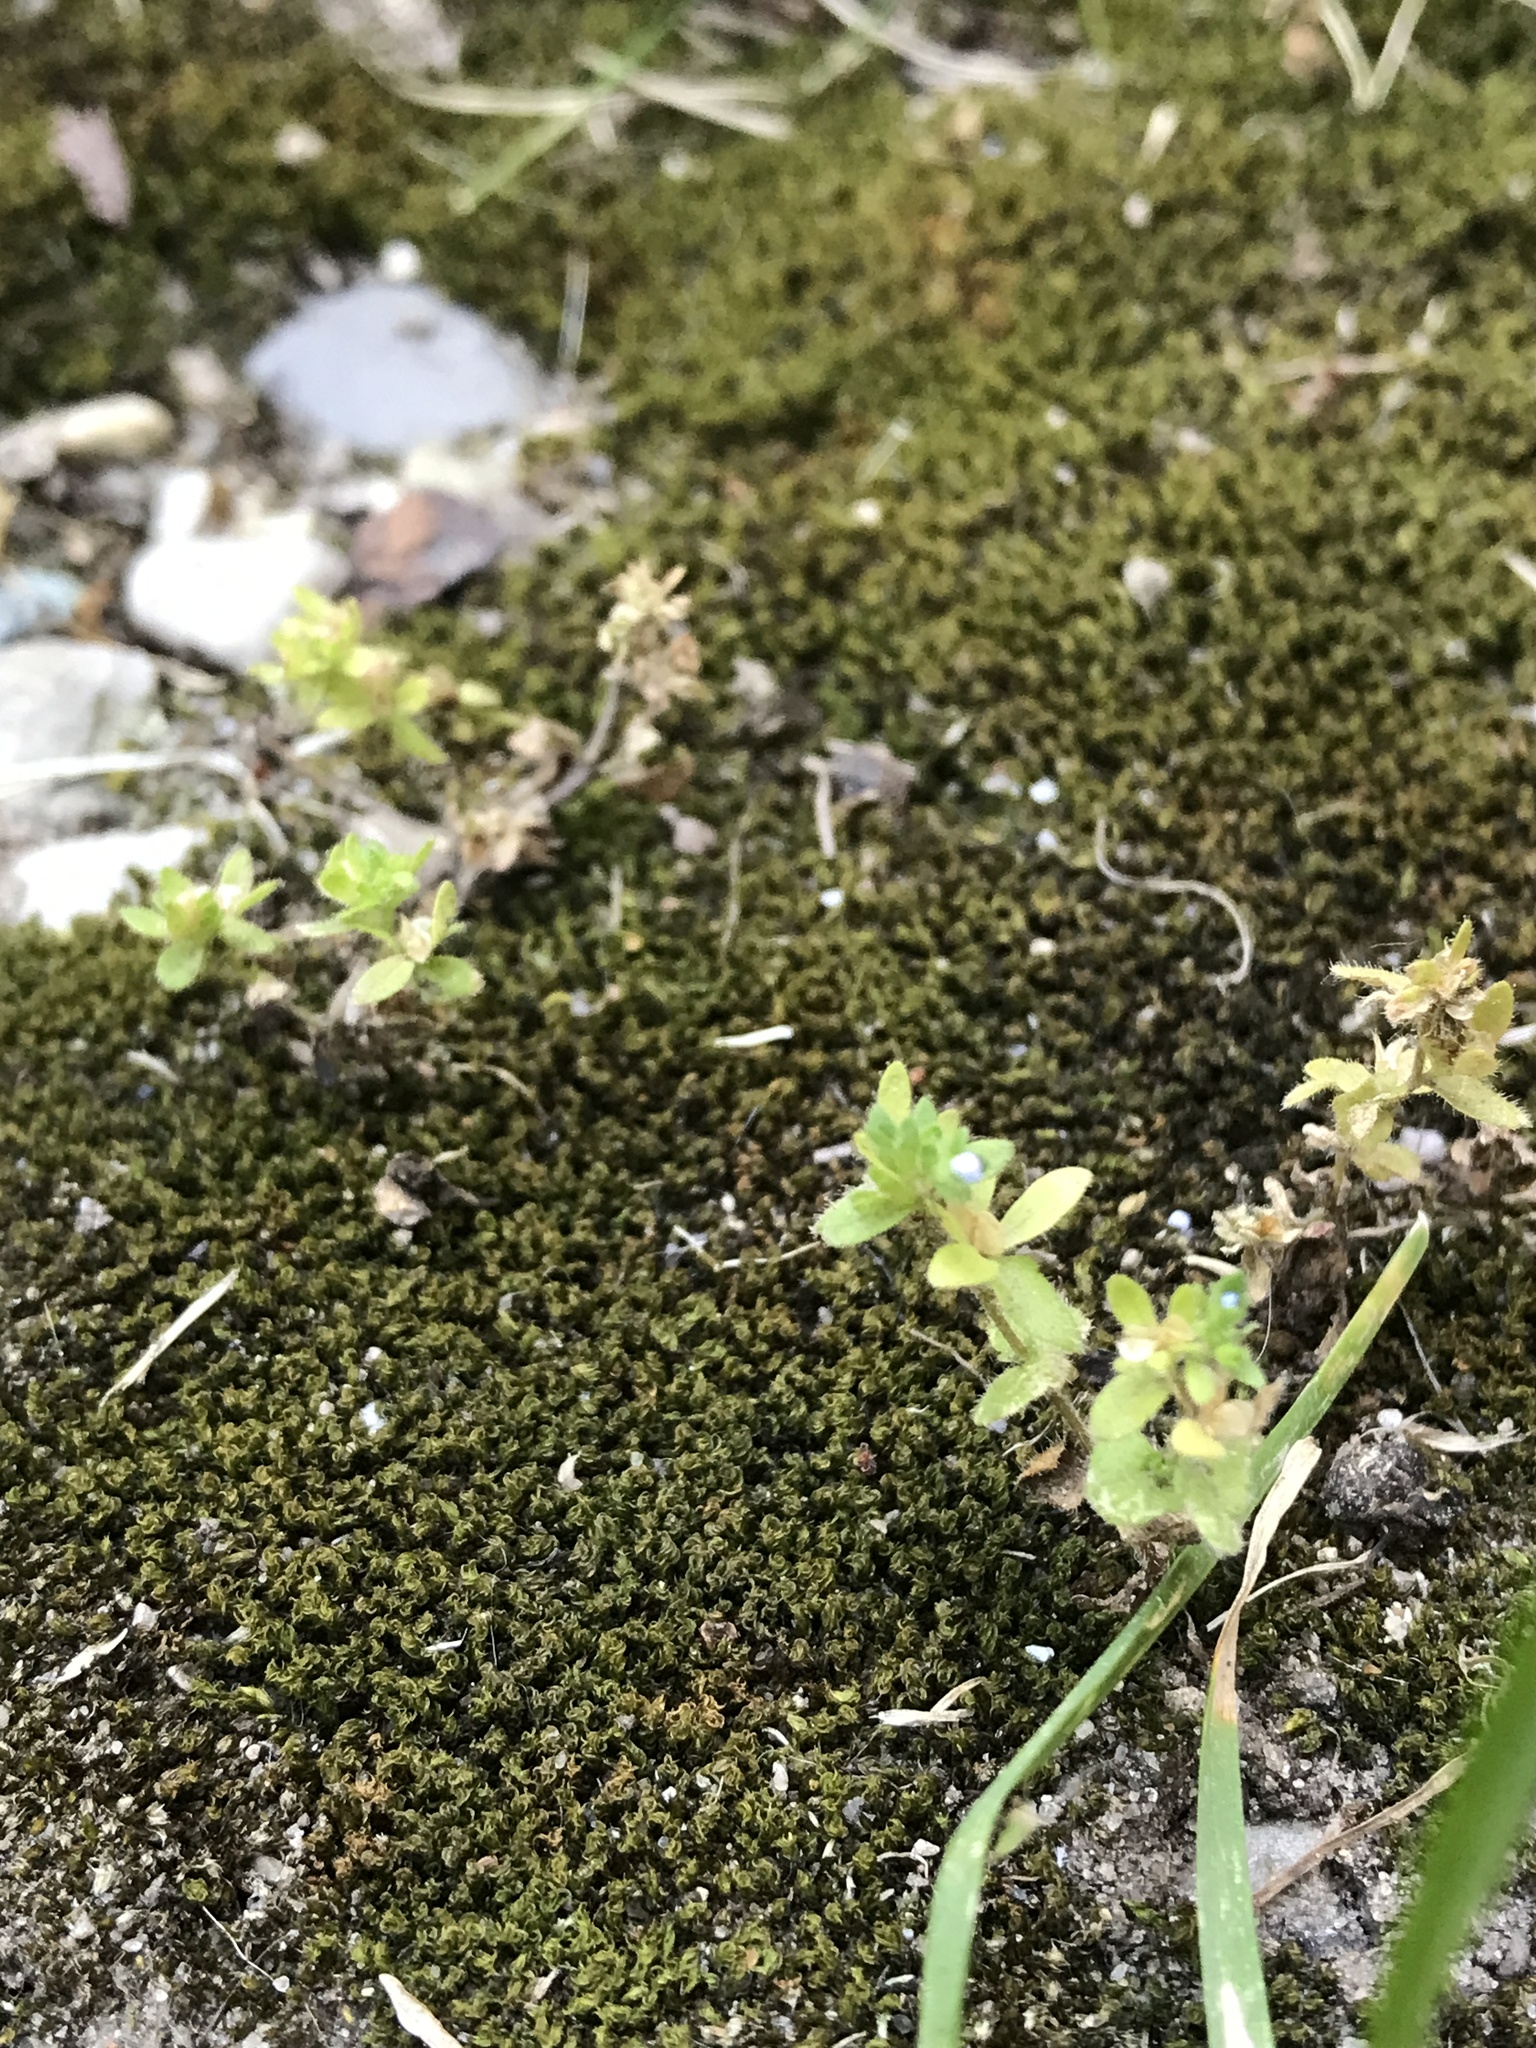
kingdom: Plantae
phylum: Tracheophyta
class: Magnoliopsida
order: Lamiales
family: Plantaginaceae
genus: Veronica
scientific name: Veronica arvensis
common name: Corn speedwell
